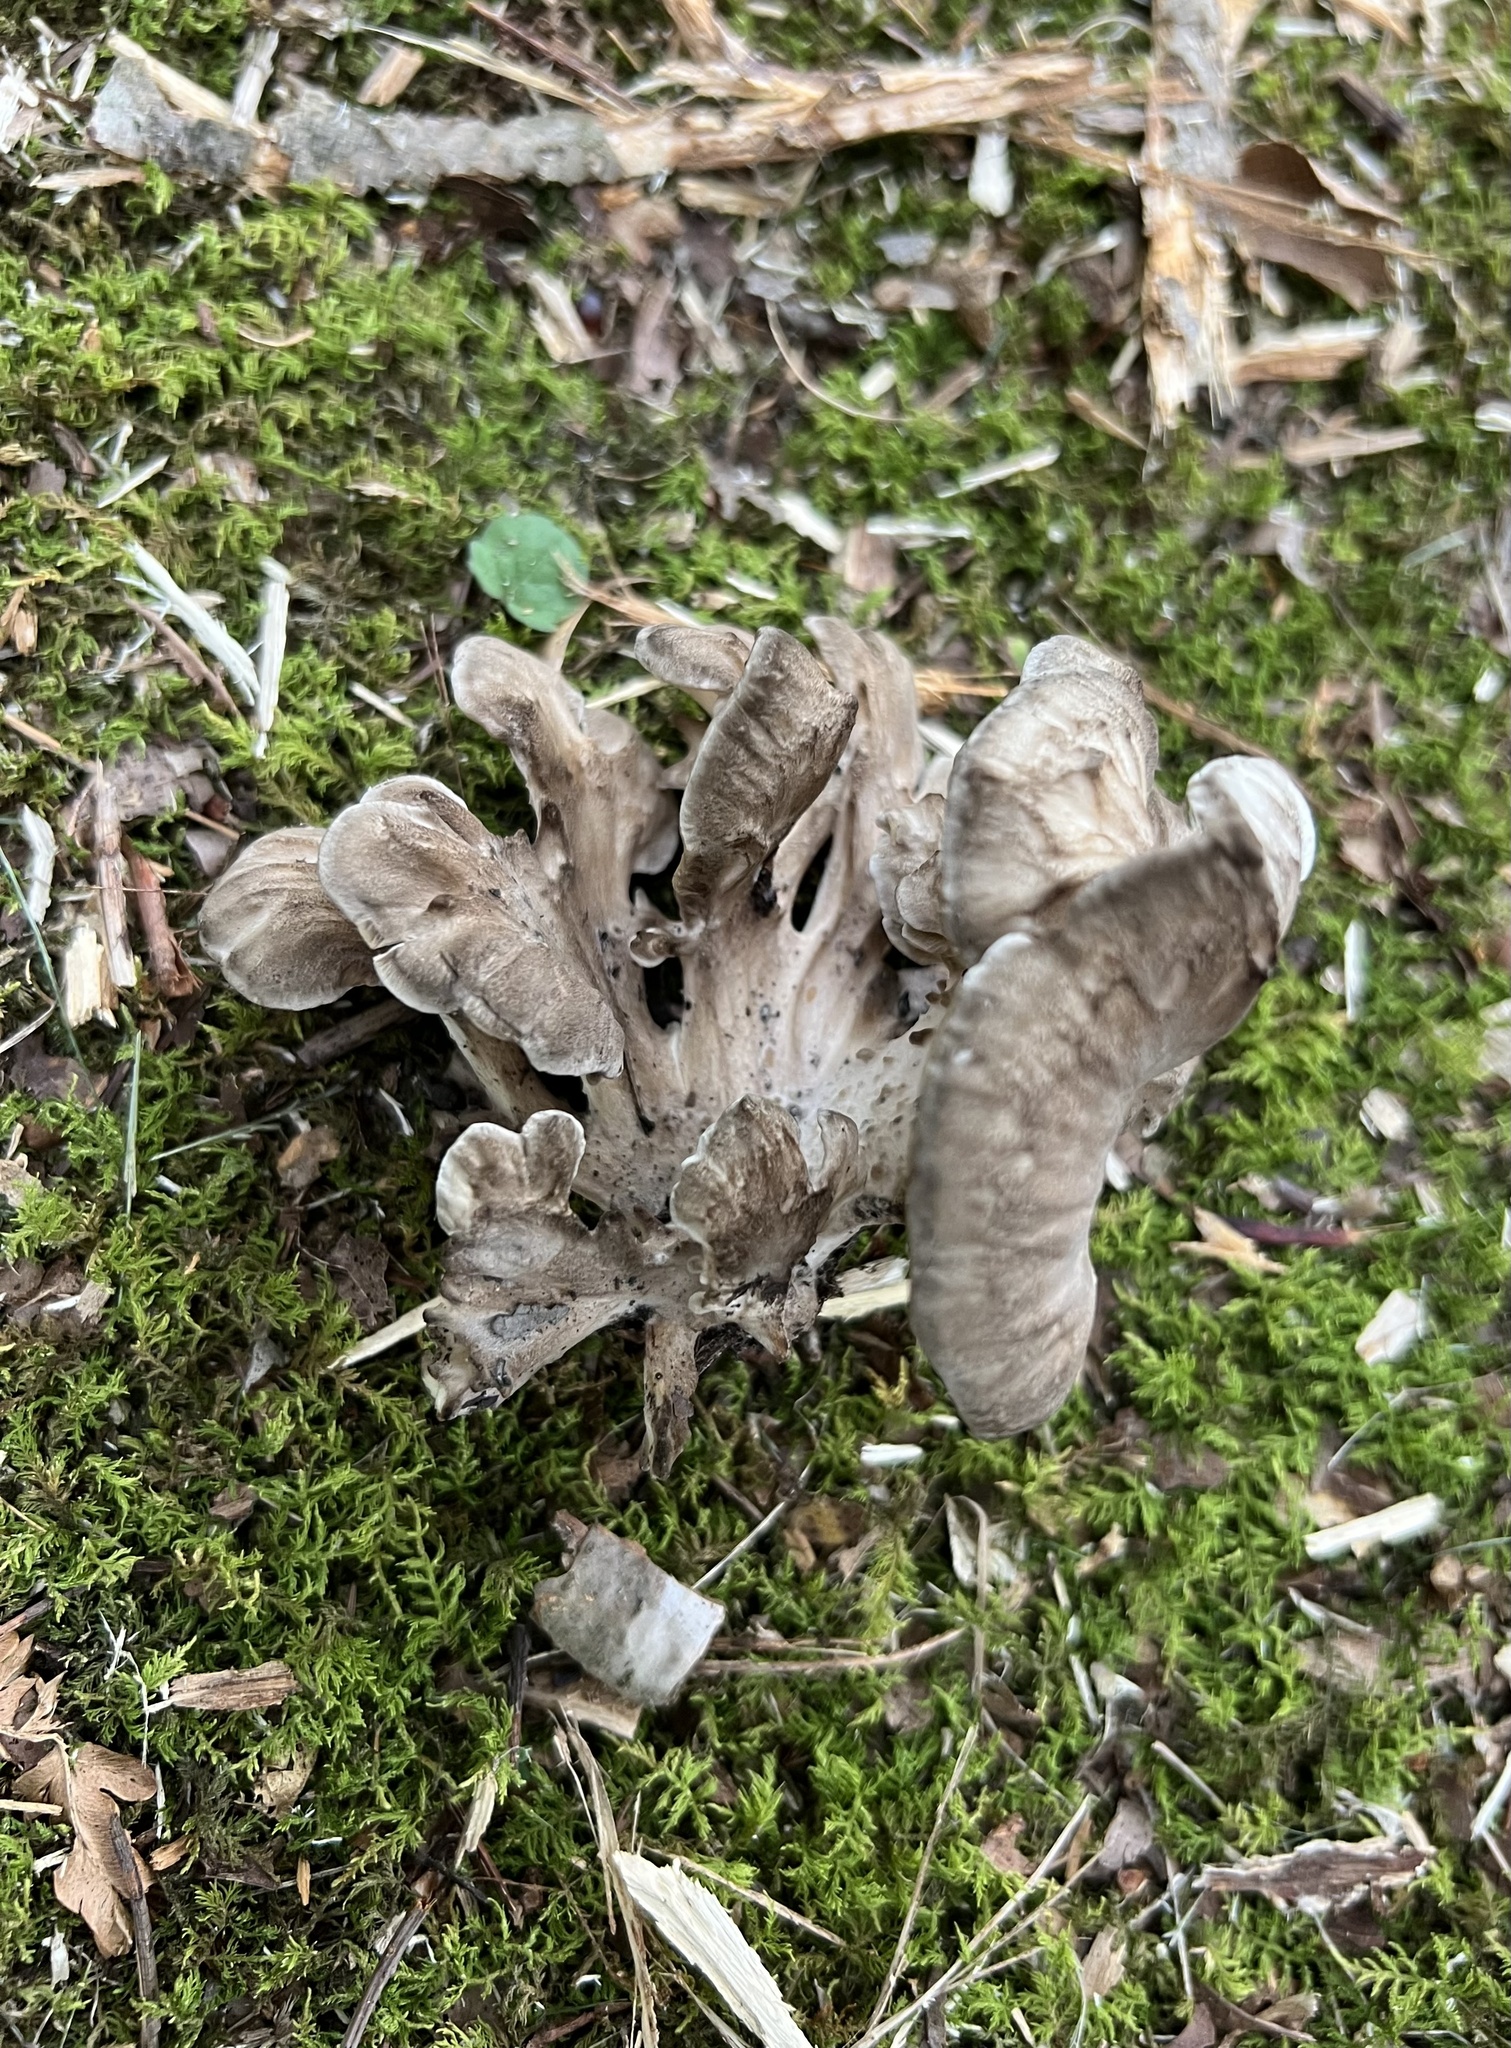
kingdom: Fungi
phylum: Basidiomycota
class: Agaricomycetes
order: Polyporales
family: Grifolaceae
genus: Grifola
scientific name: Grifola frondosa
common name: Hen of the woods
